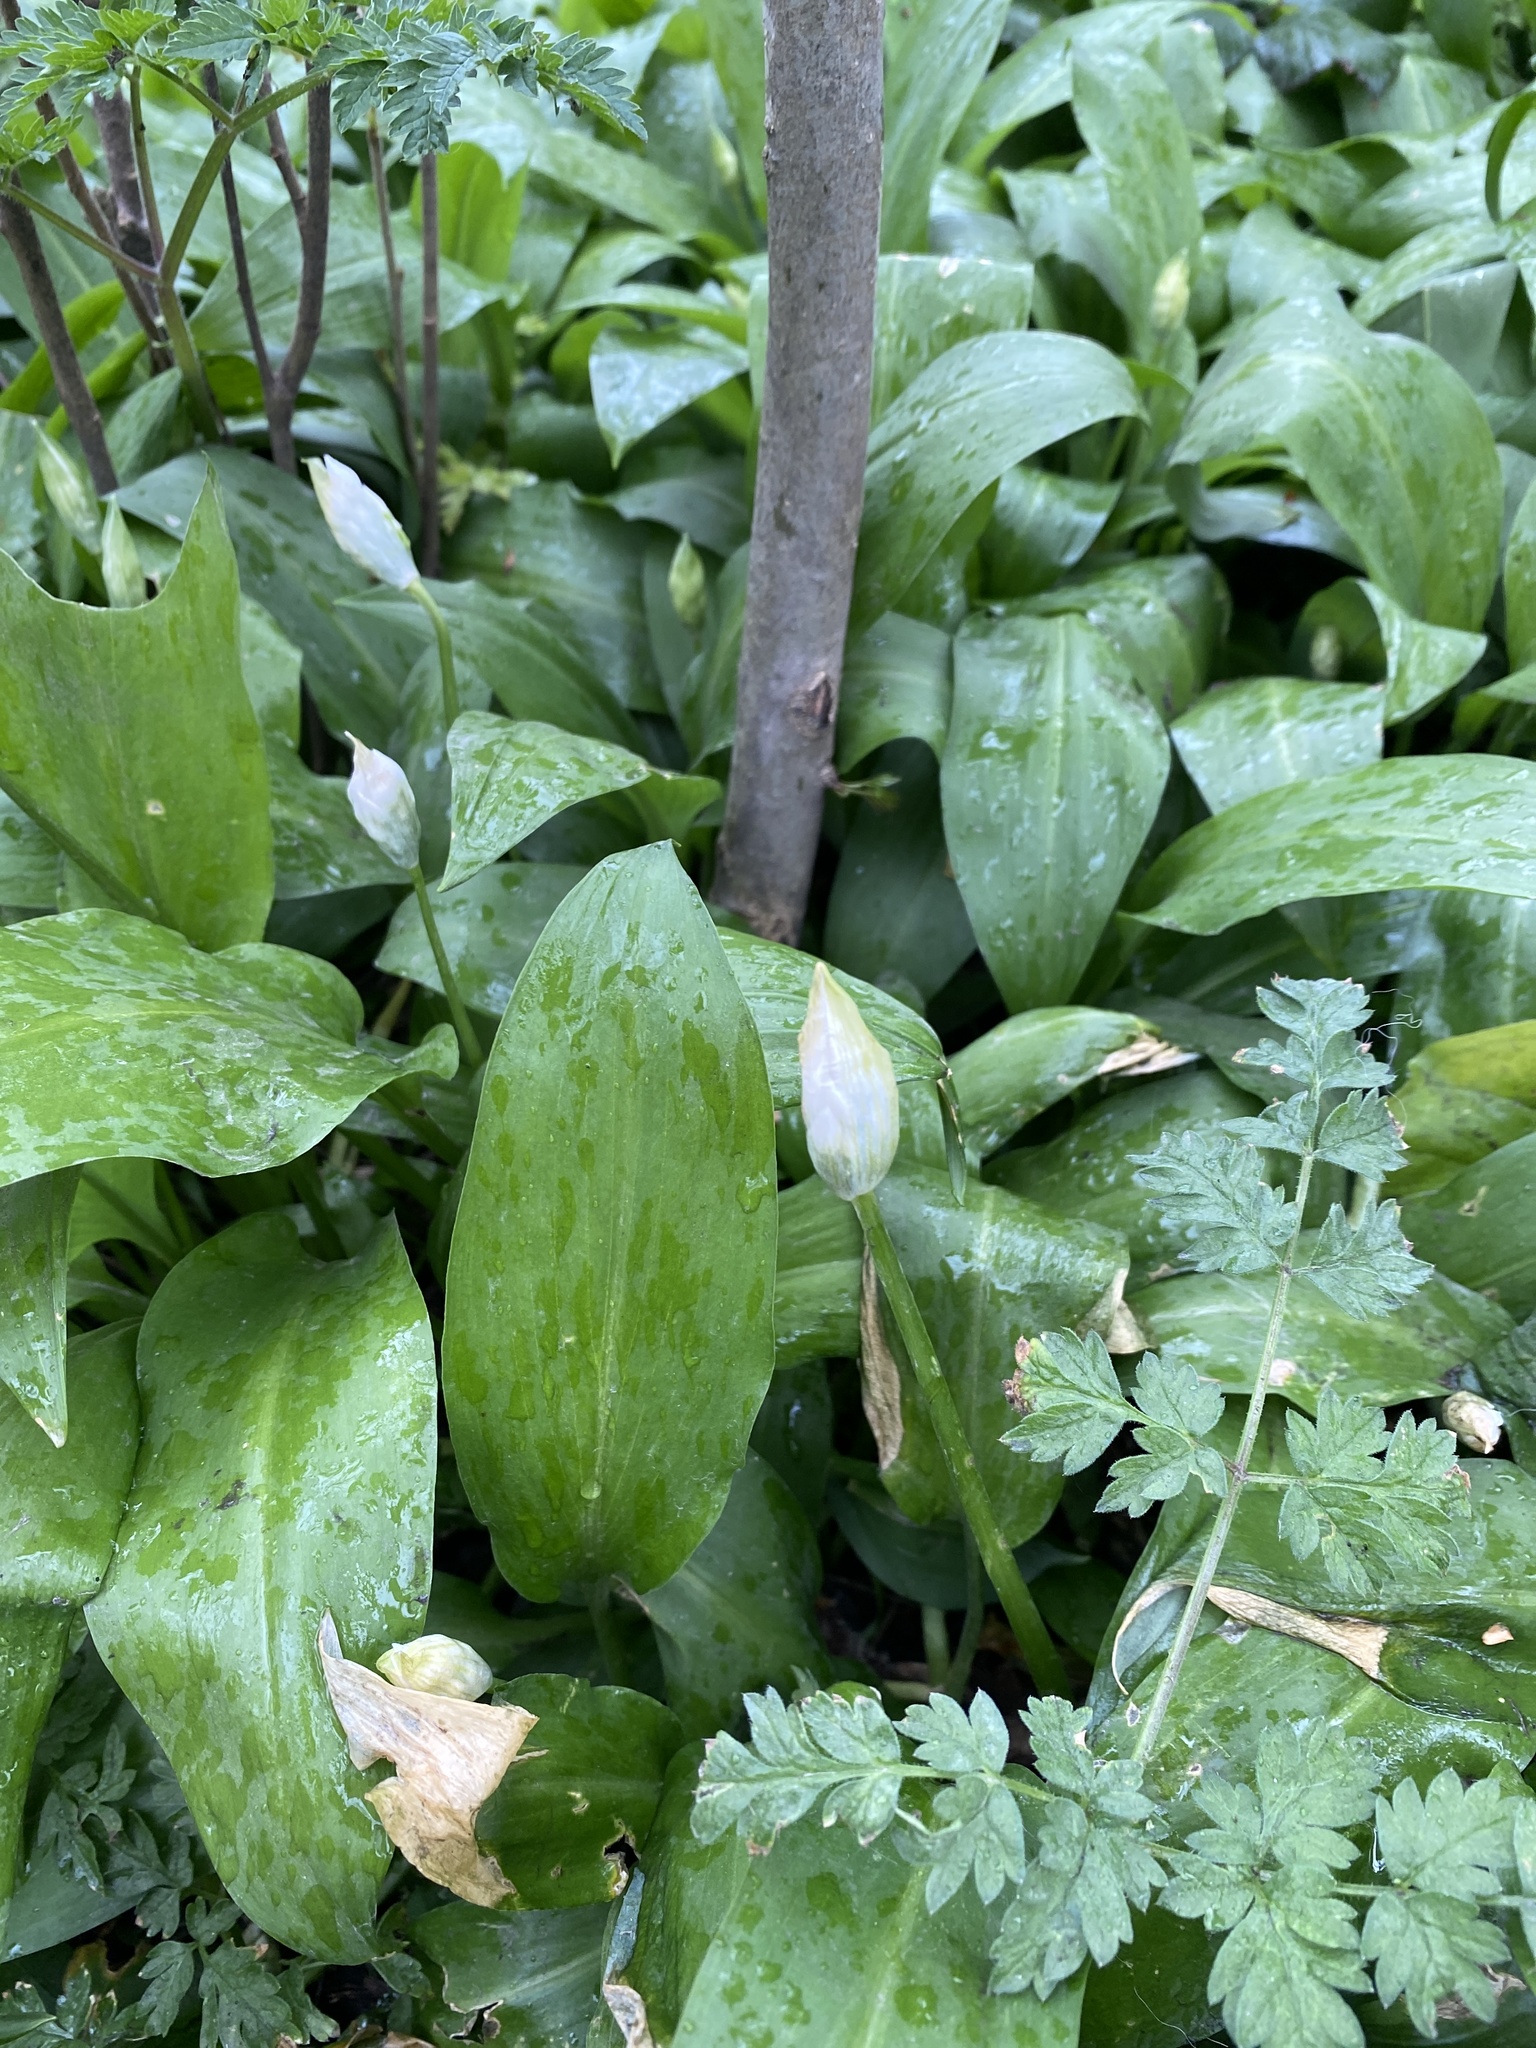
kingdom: Plantae
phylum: Tracheophyta
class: Liliopsida
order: Asparagales
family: Amaryllidaceae
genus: Allium
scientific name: Allium ursinum
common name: Ramsons
